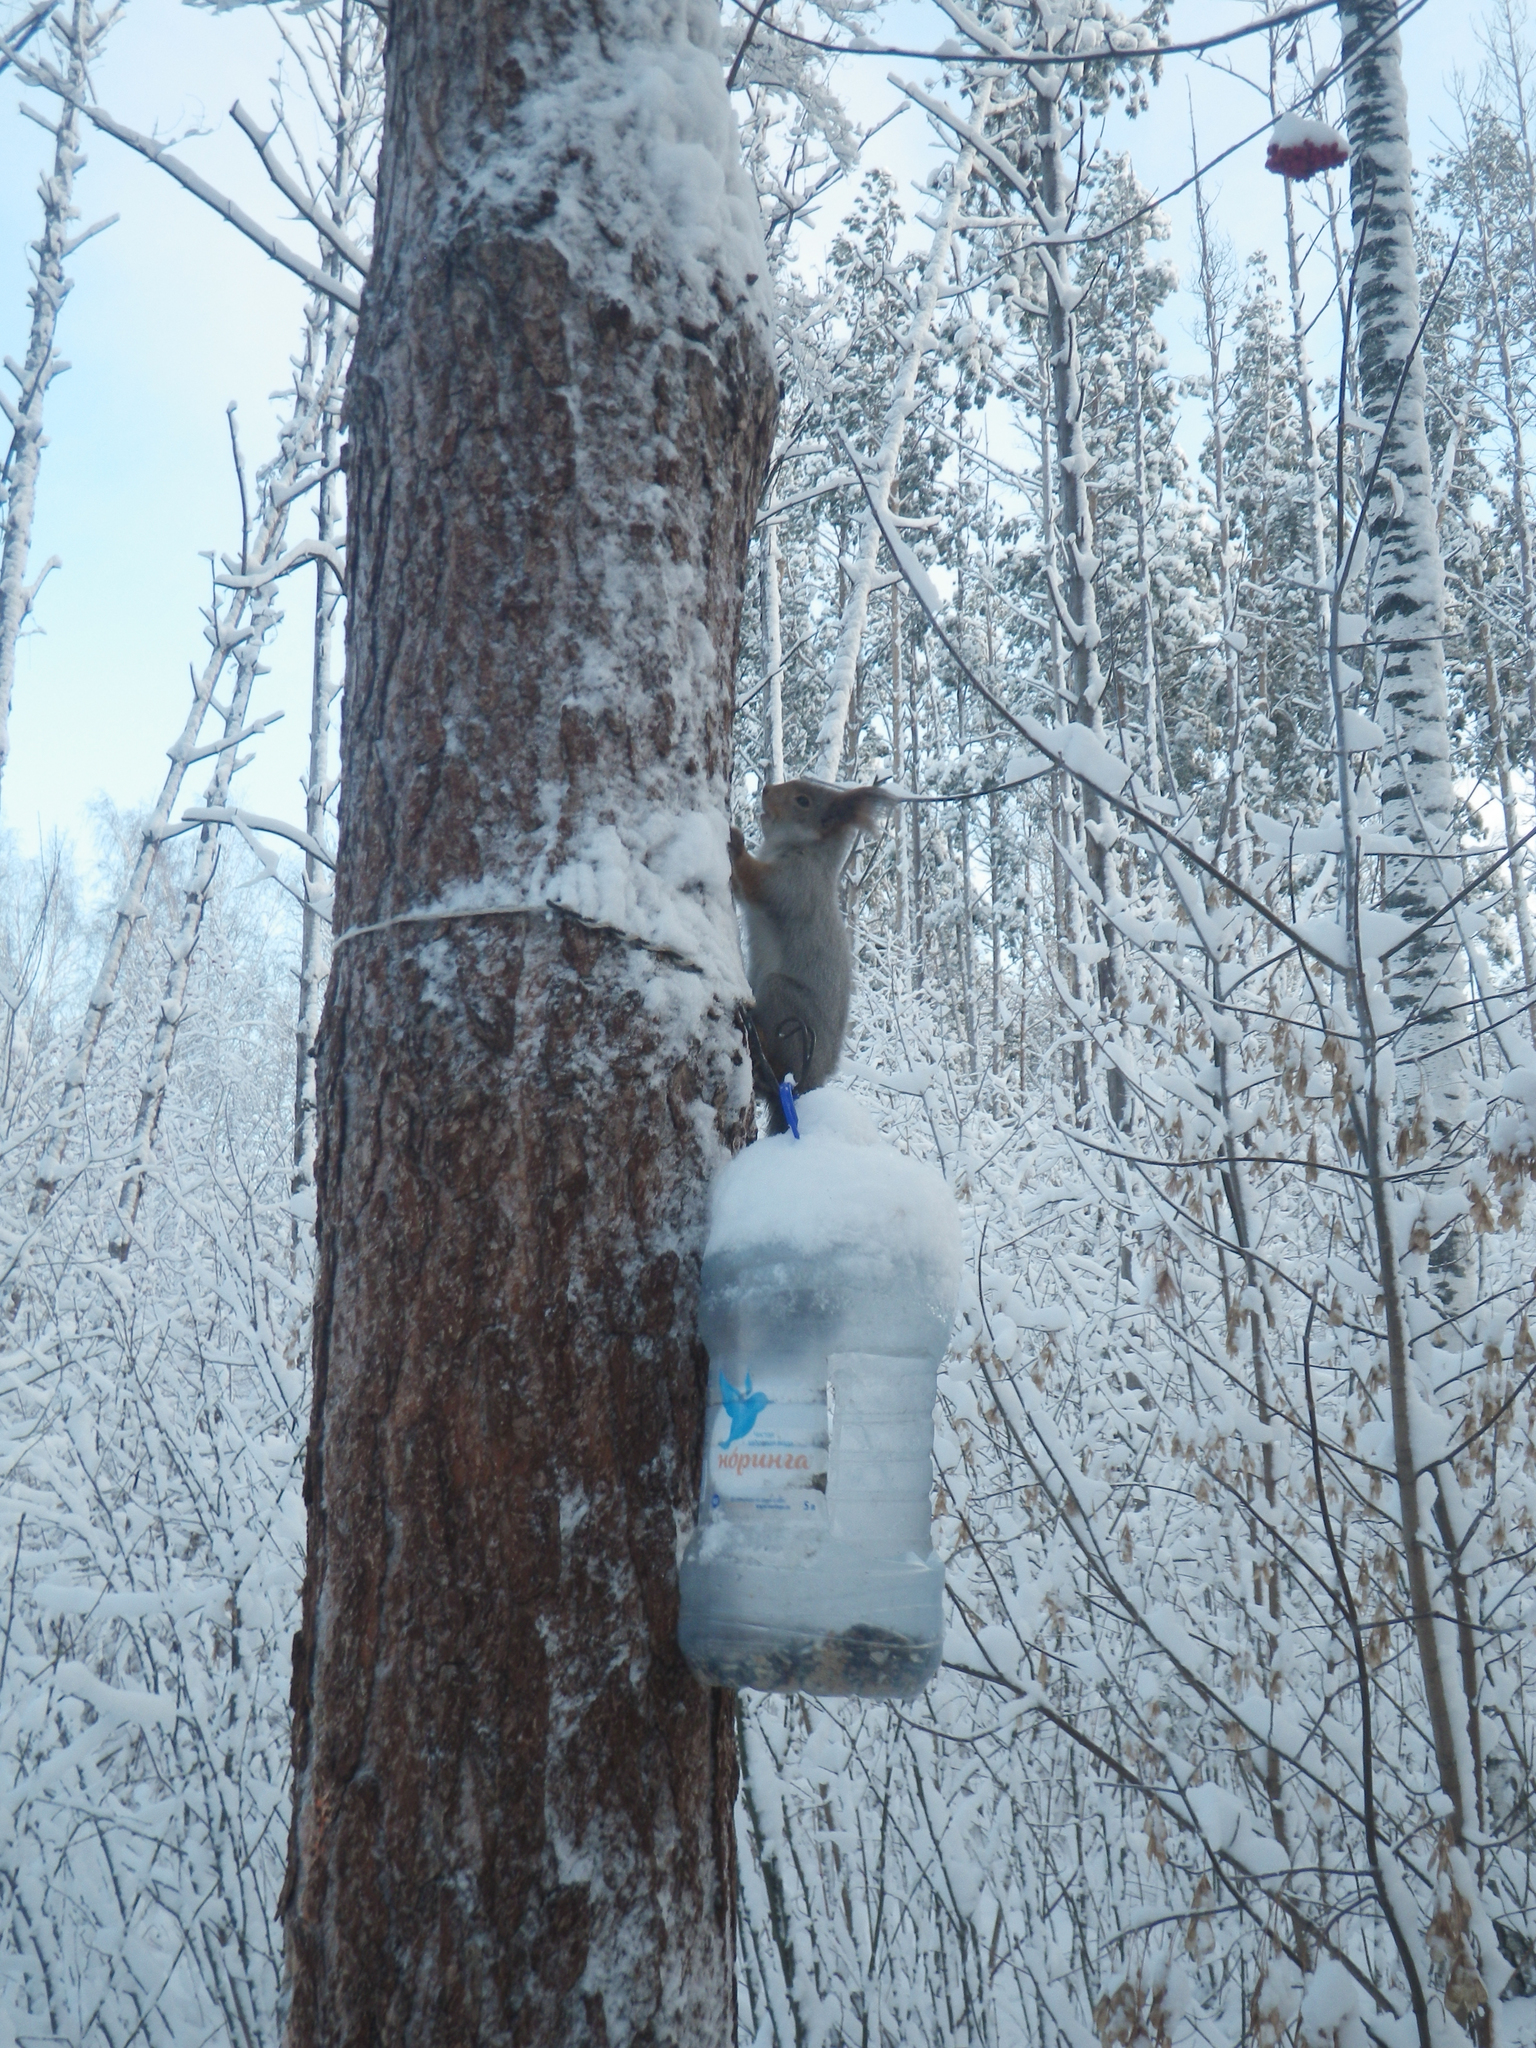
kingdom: Animalia
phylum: Chordata
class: Mammalia
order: Rodentia
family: Sciuridae
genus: Sciurus
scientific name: Sciurus vulgaris
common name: Eurasian red squirrel
